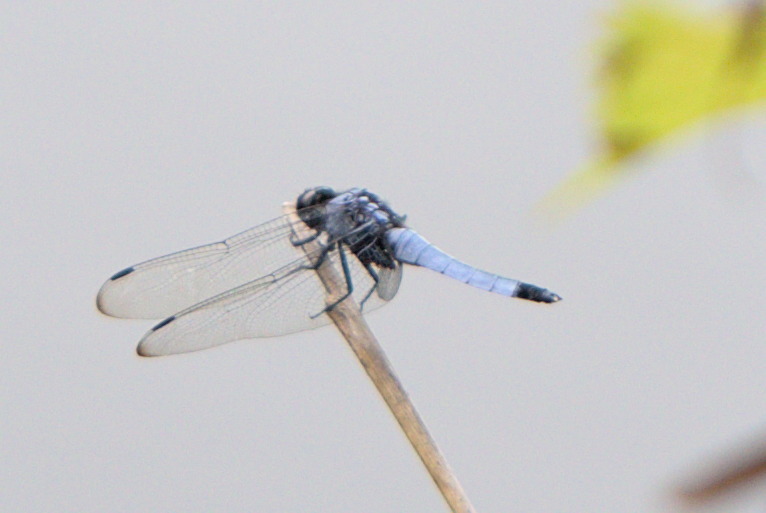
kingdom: Animalia
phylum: Arthropoda
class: Insecta
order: Odonata
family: Libellulidae
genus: Orthetrum
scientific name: Orthetrum melania
